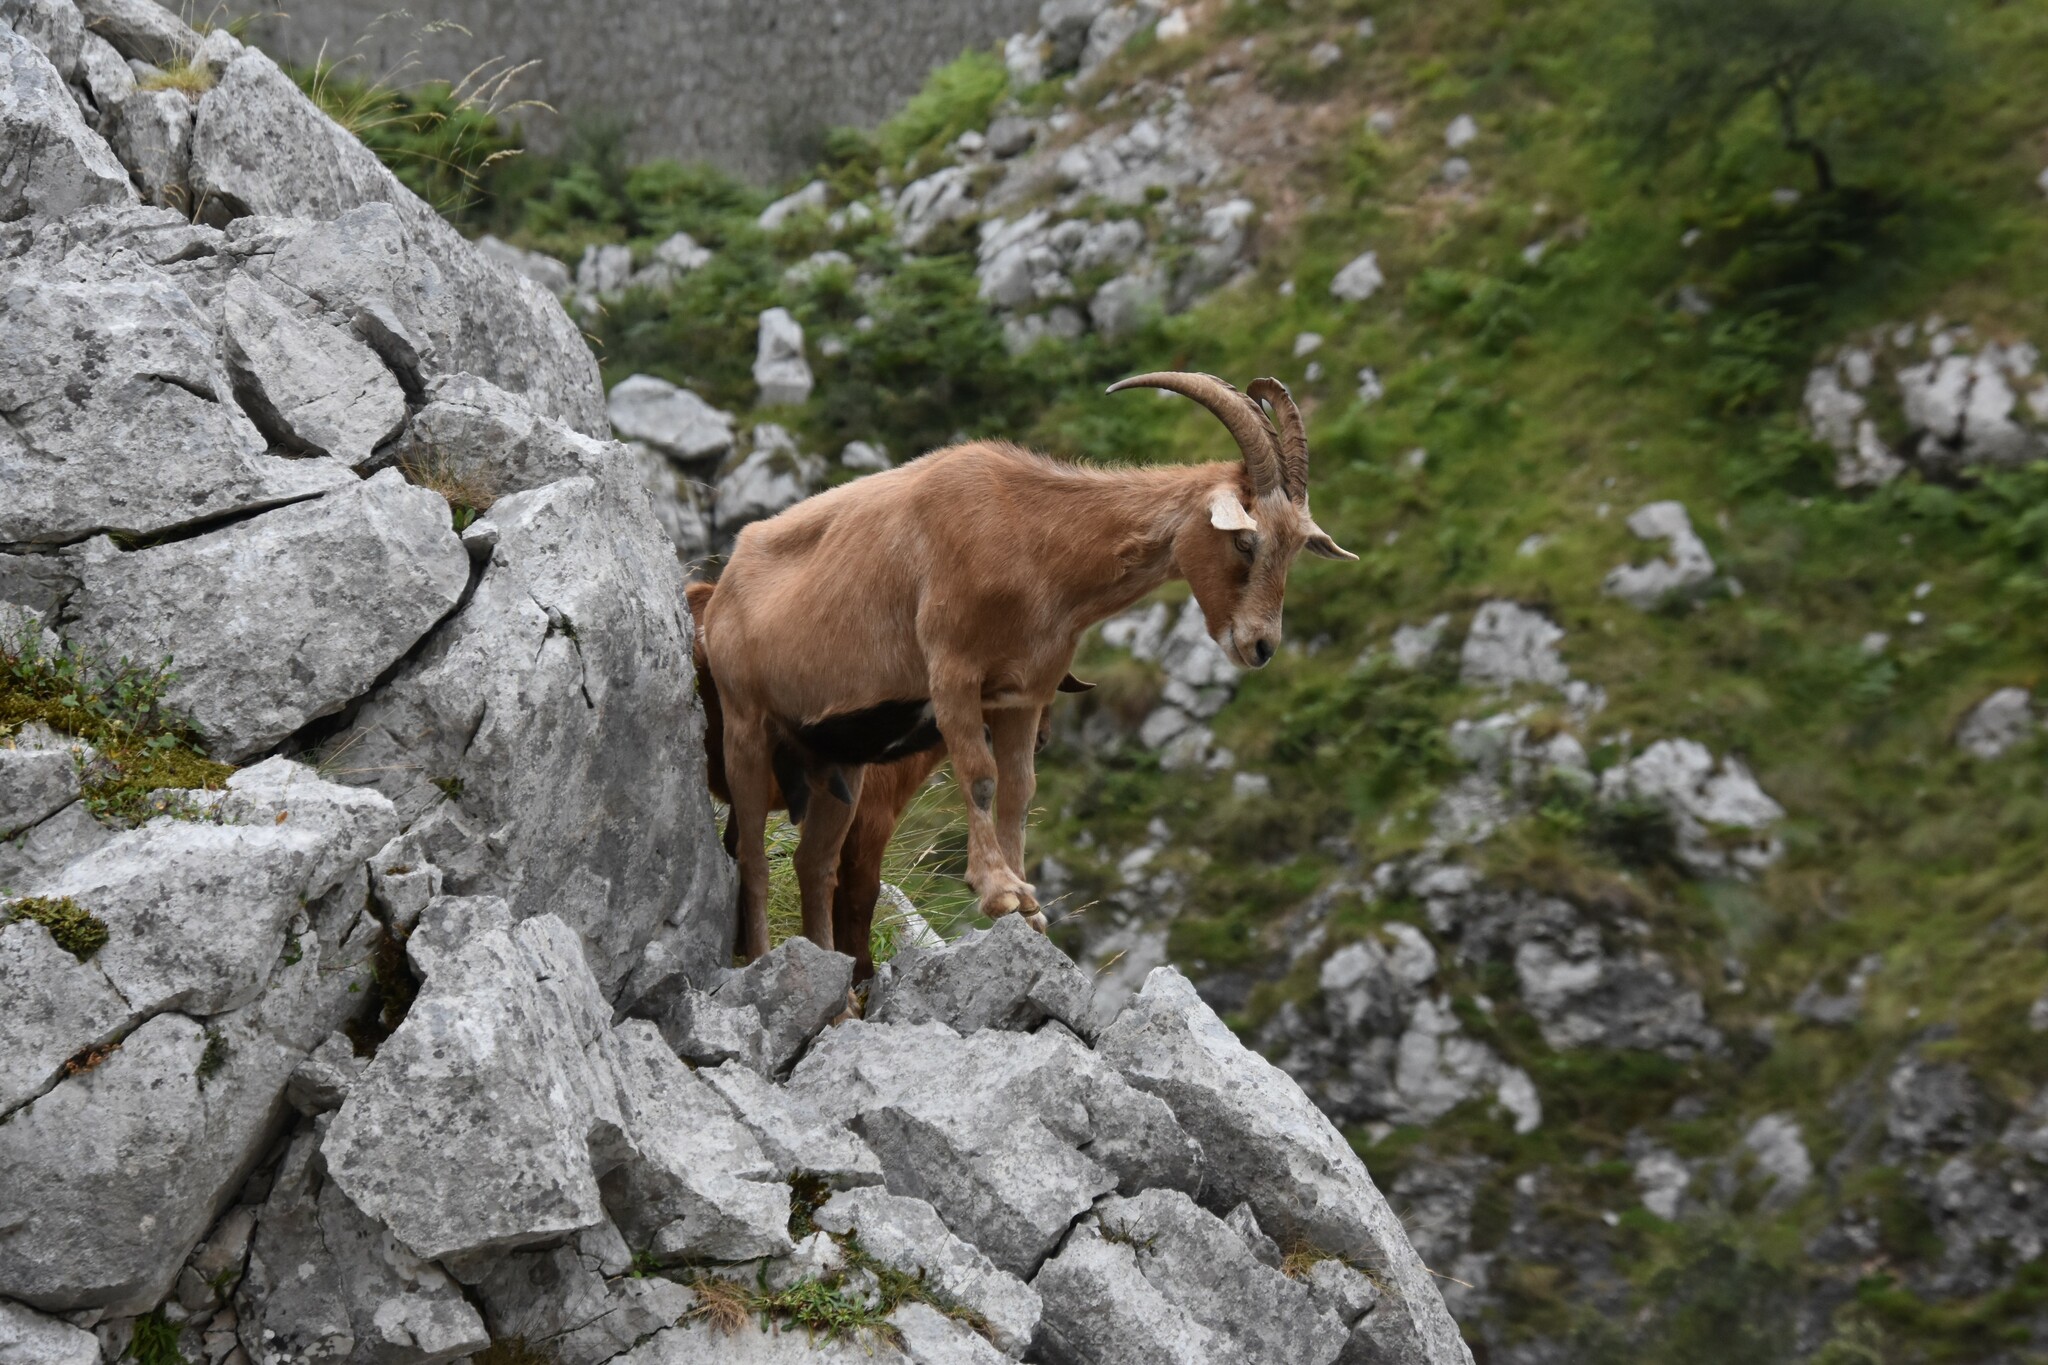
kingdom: Animalia
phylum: Chordata
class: Mammalia
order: Artiodactyla
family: Bovidae
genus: Capra
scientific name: Capra hircus
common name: Domestic goat
